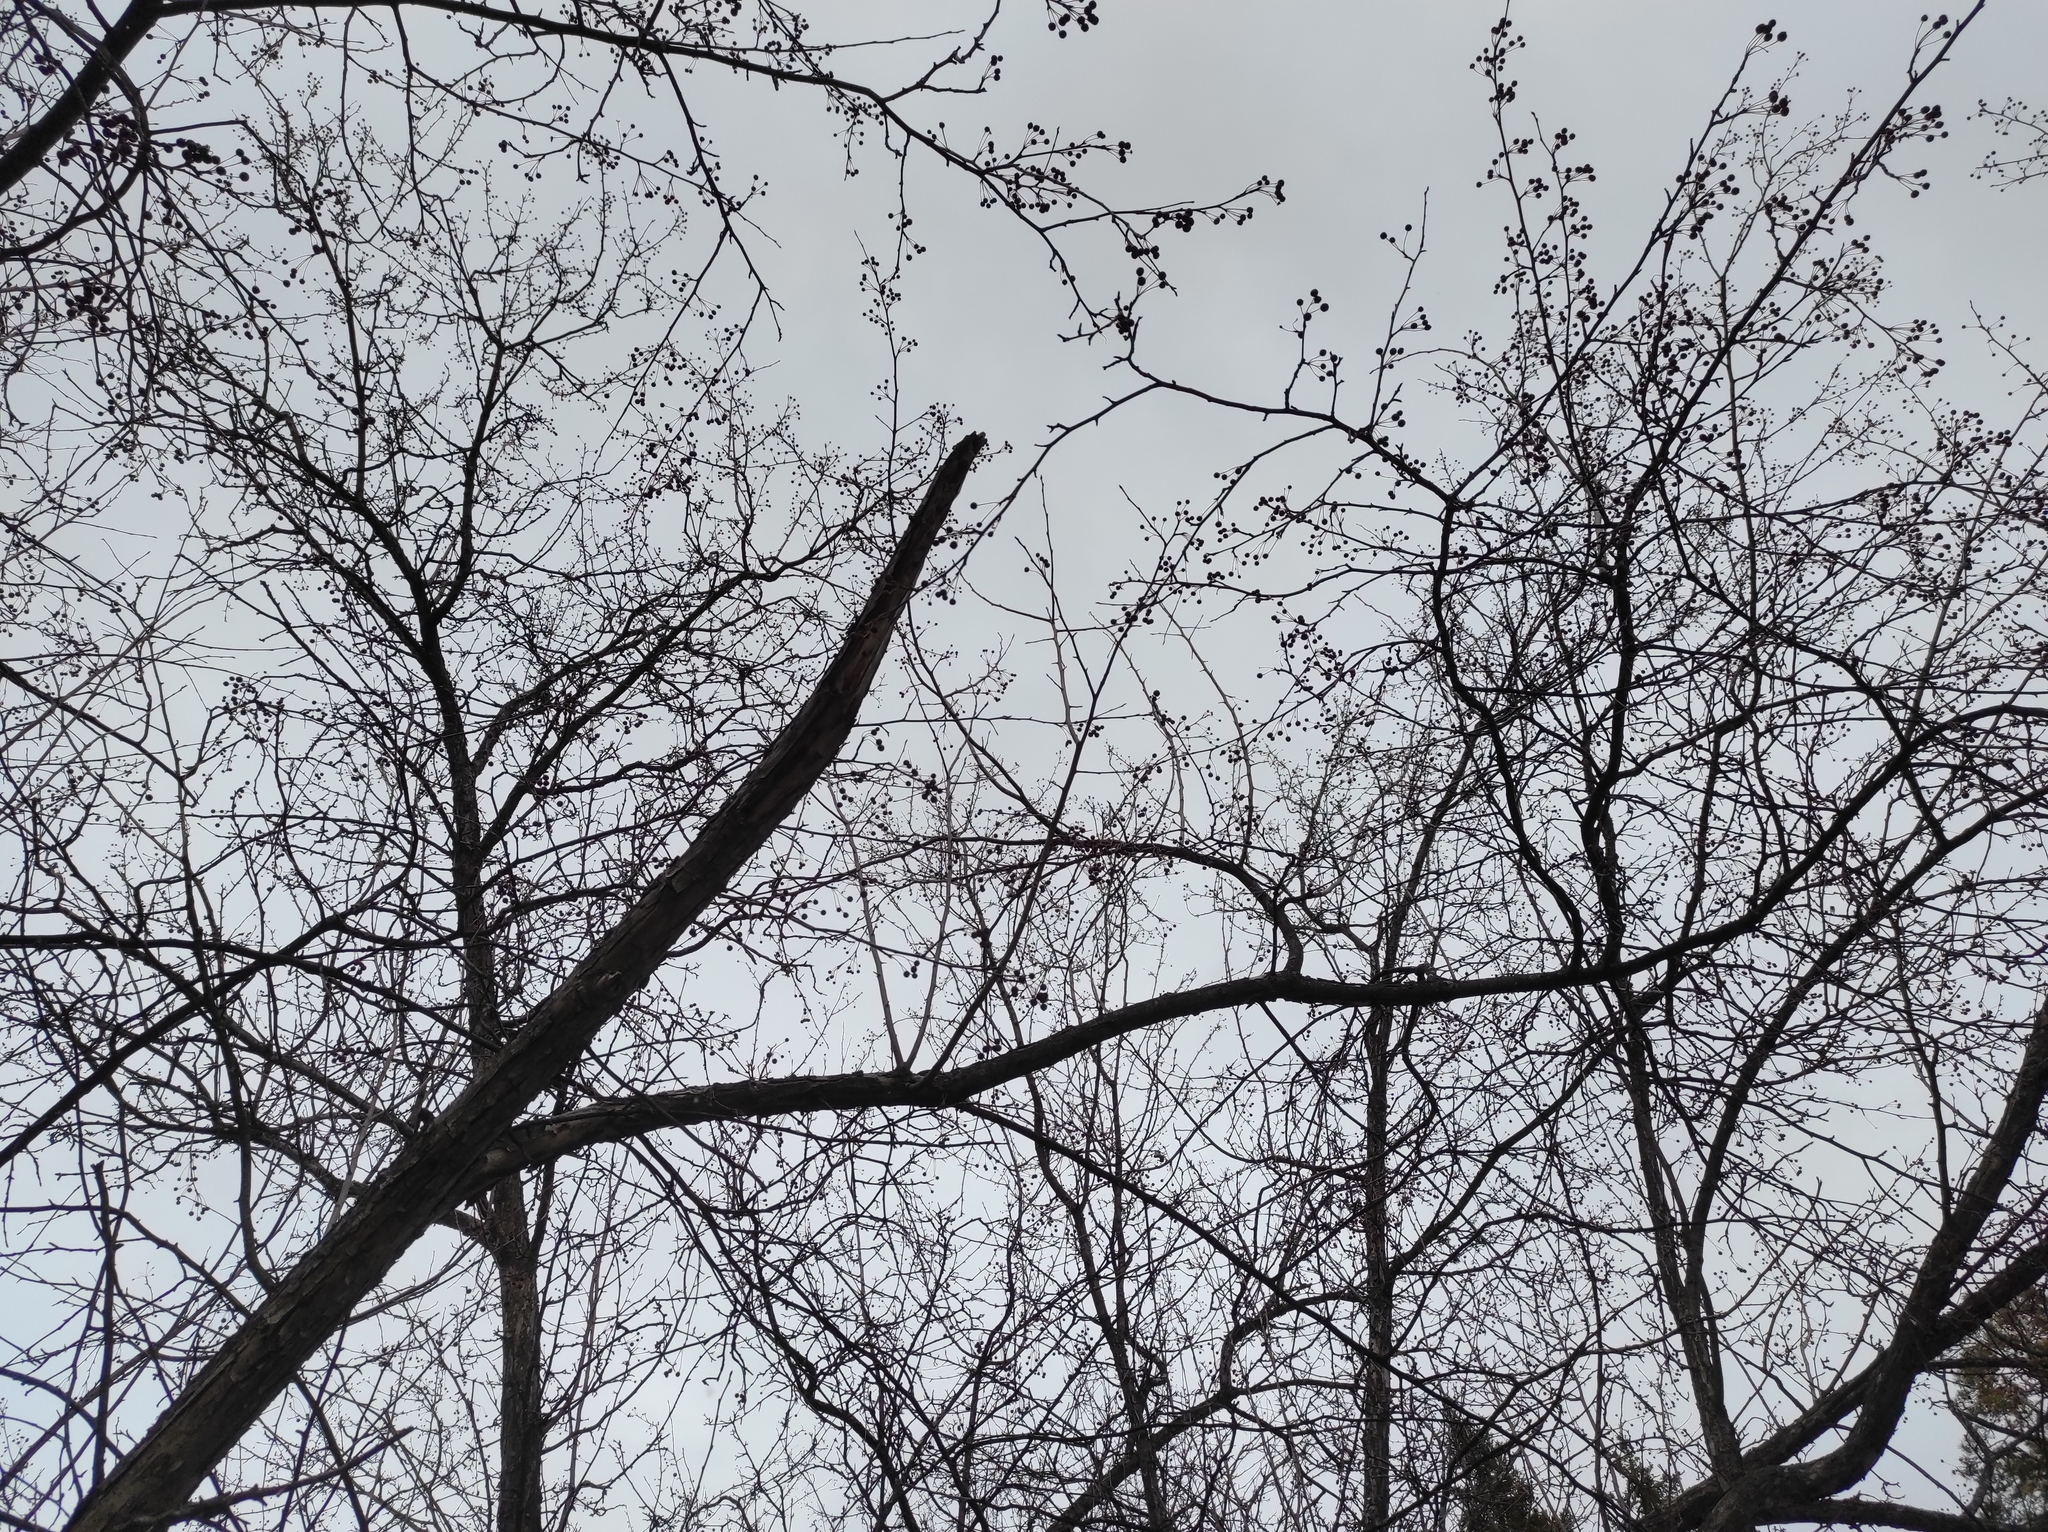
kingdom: Animalia
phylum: Chordata
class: Aves
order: Passeriformes
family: Paridae
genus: Parus
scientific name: Parus major
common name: Great tit
